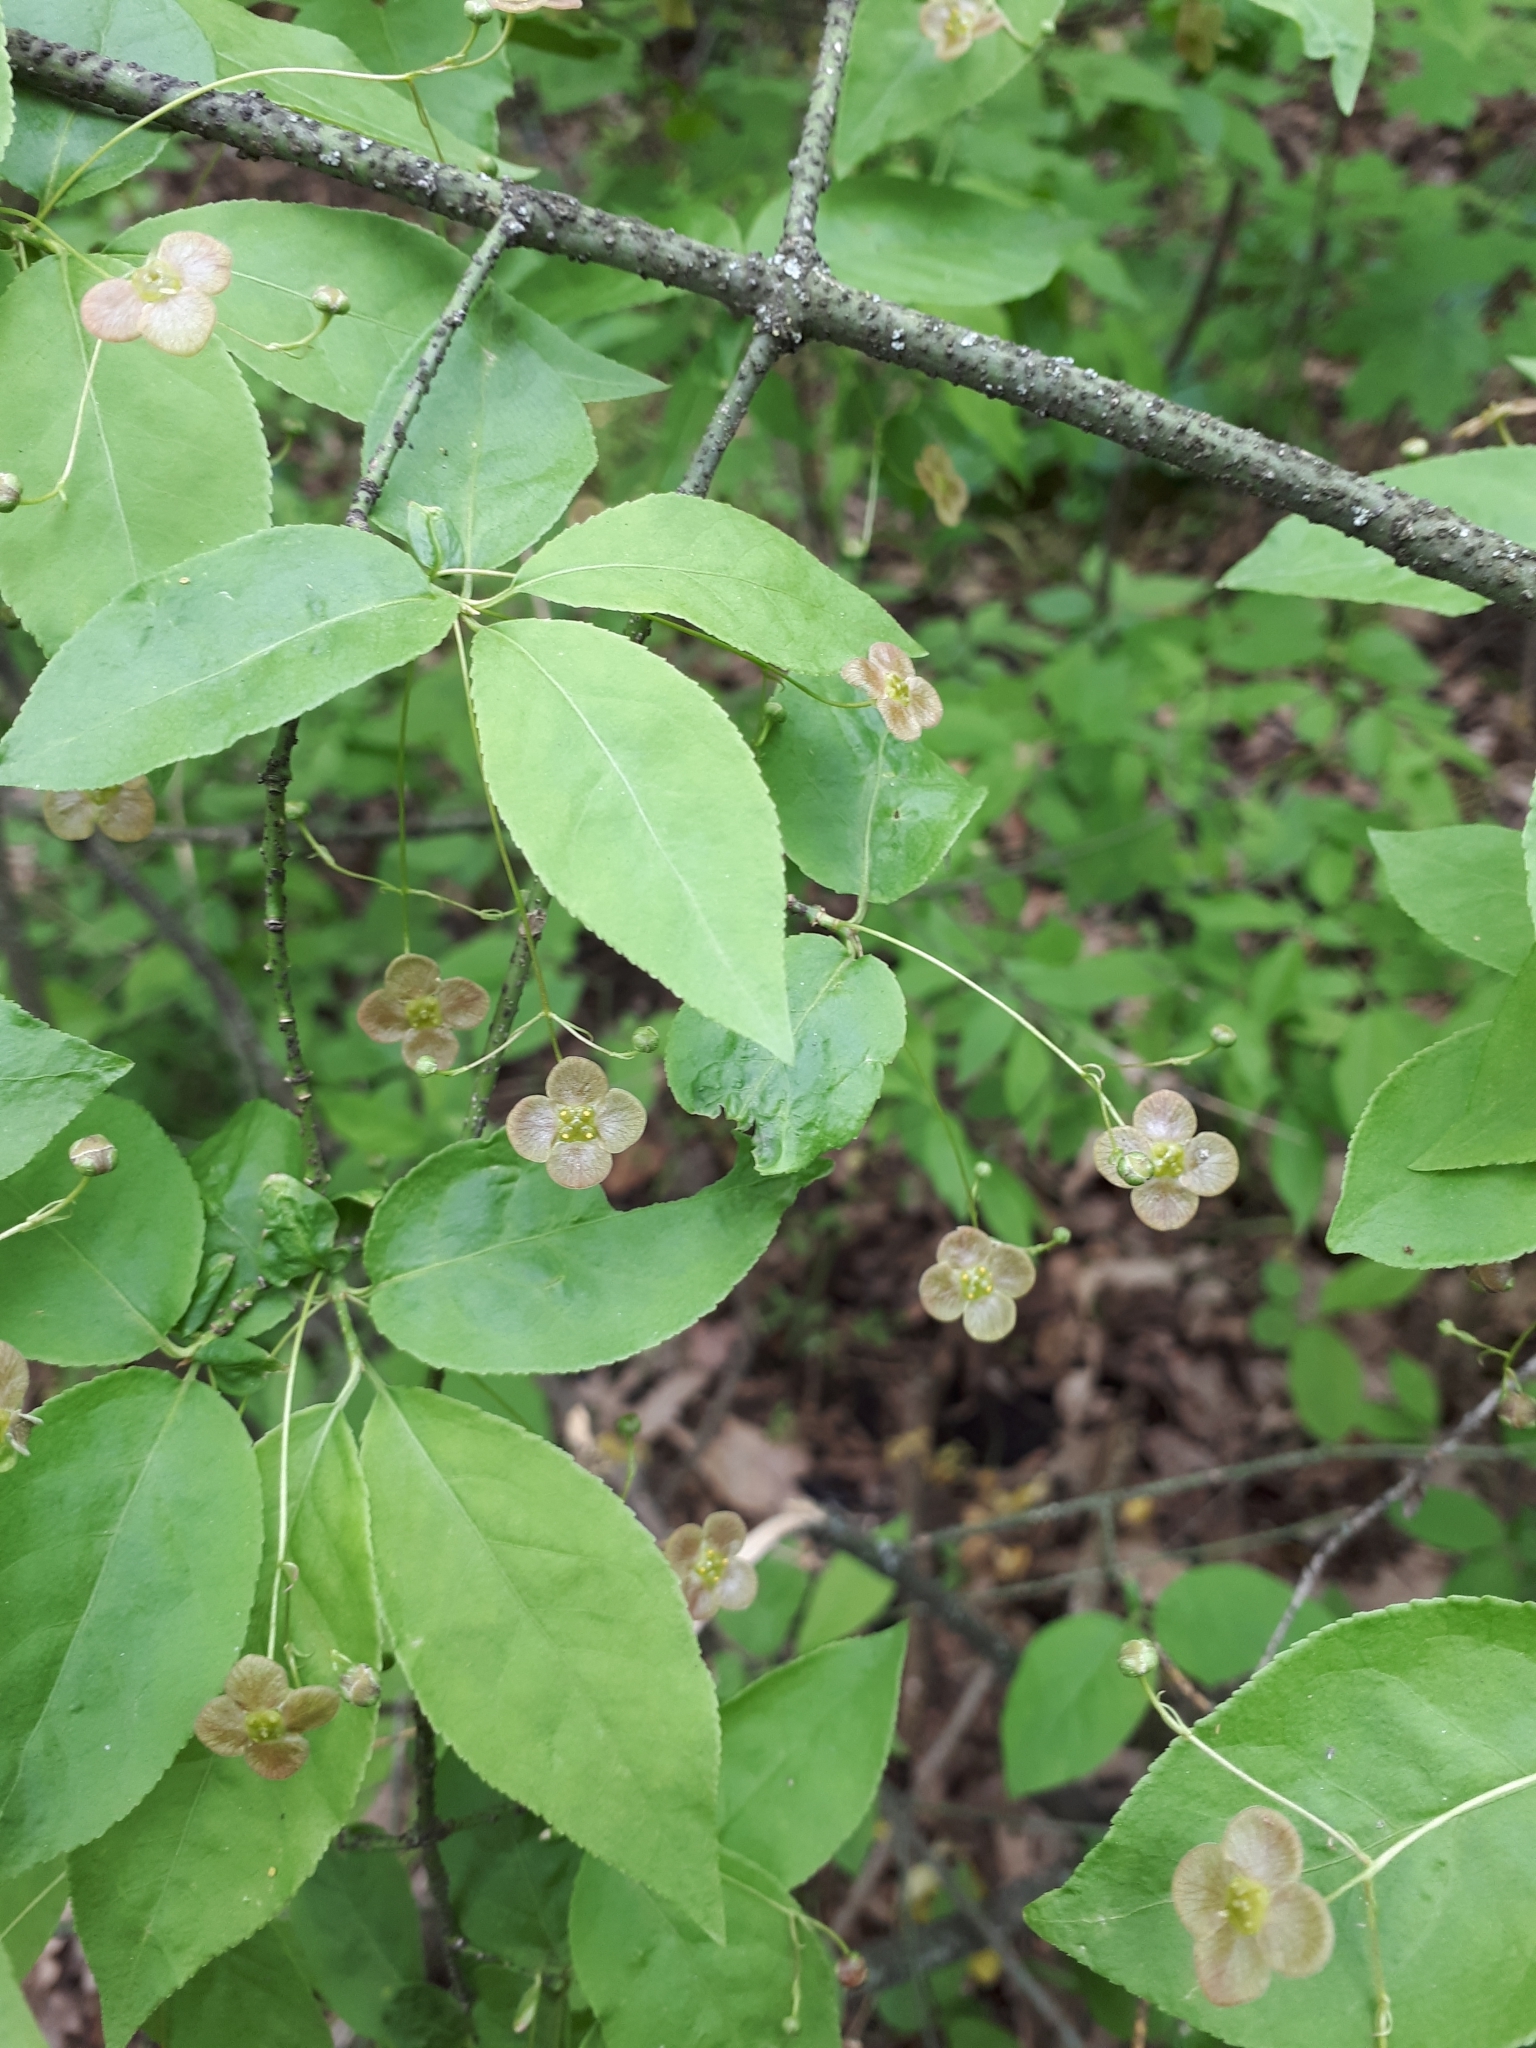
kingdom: Plantae
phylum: Tracheophyta
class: Magnoliopsida
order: Celastrales
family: Celastraceae
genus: Euonymus
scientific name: Euonymus verrucosus
